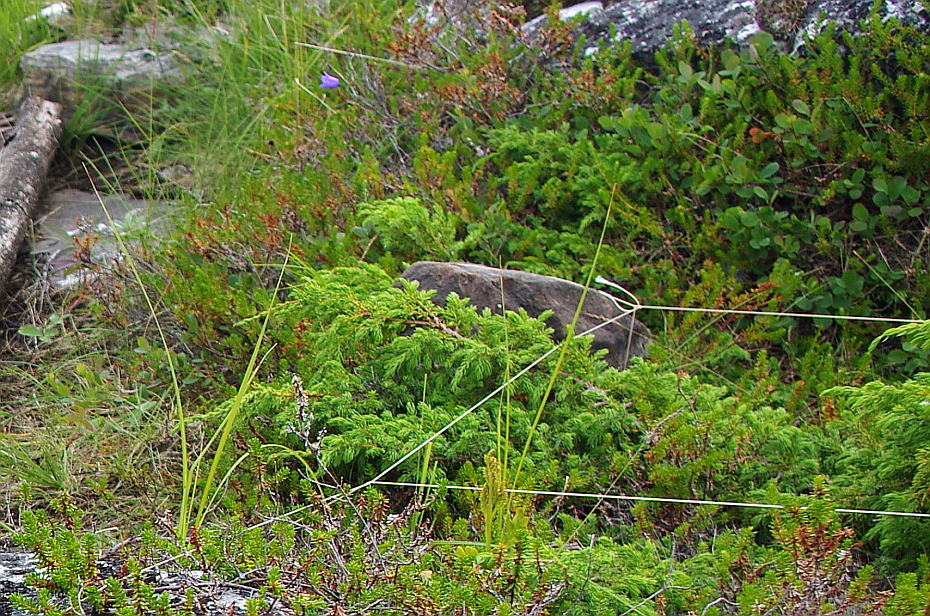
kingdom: Plantae
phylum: Tracheophyta
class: Pinopsida
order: Pinales
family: Cupressaceae
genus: Juniperus
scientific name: Juniperus communis
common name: Common juniper
